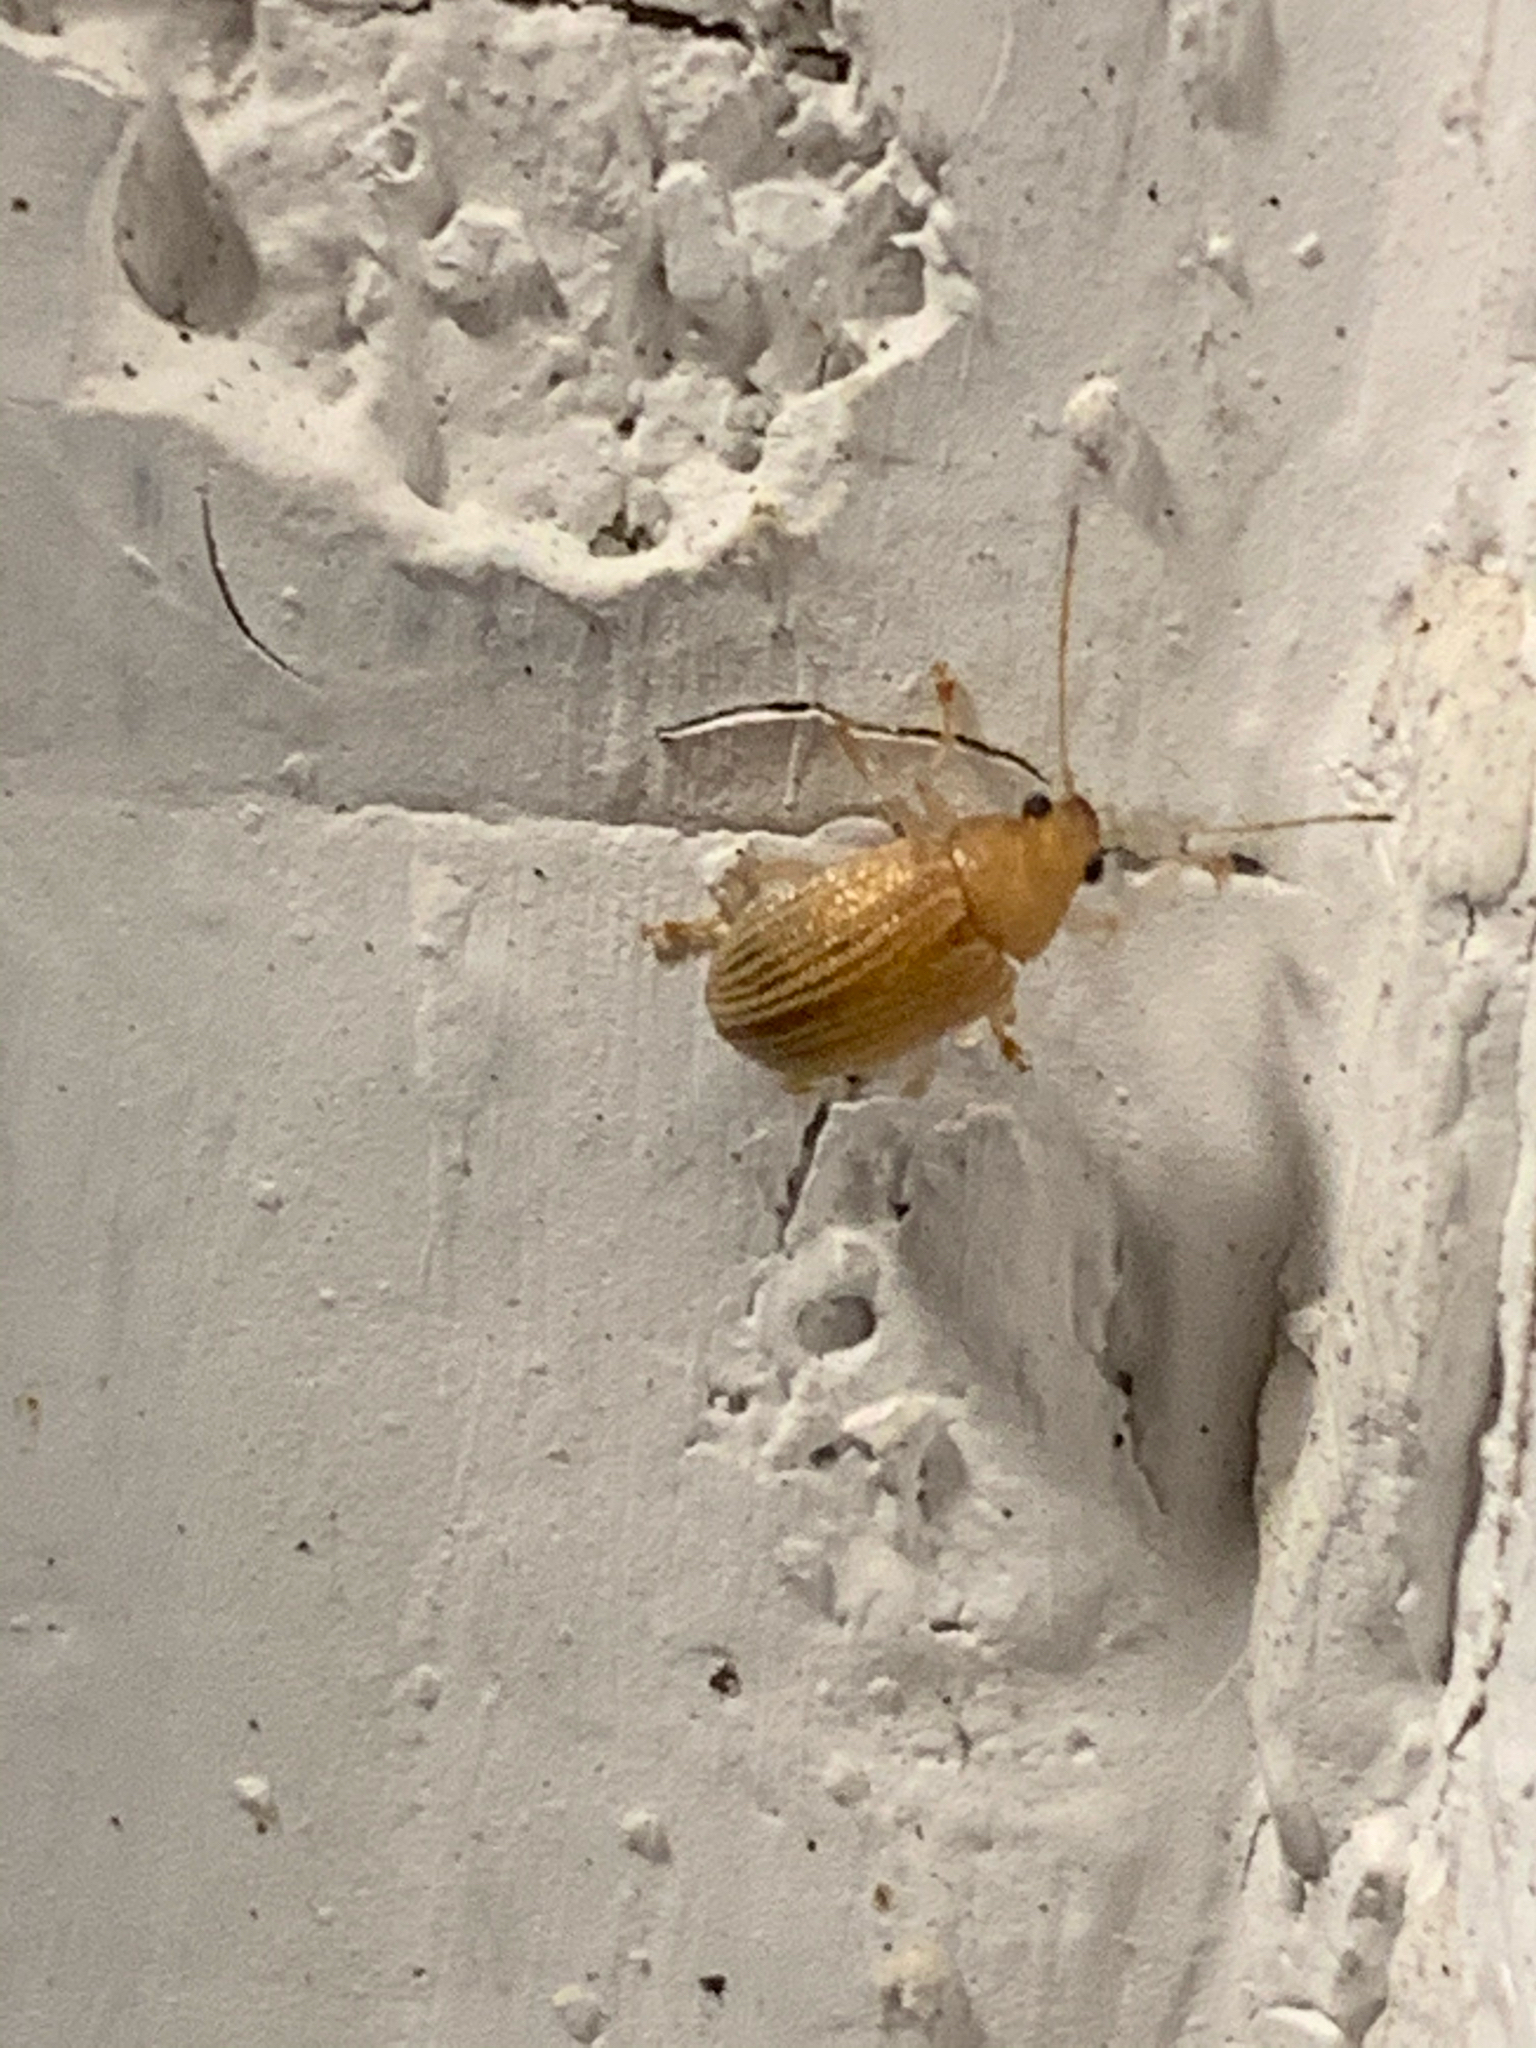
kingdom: Animalia
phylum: Arthropoda
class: Insecta
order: Coleoptera
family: Chrysomelidae
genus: Colaspis
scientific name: Colaspis brunnea
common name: Grape colaspis
